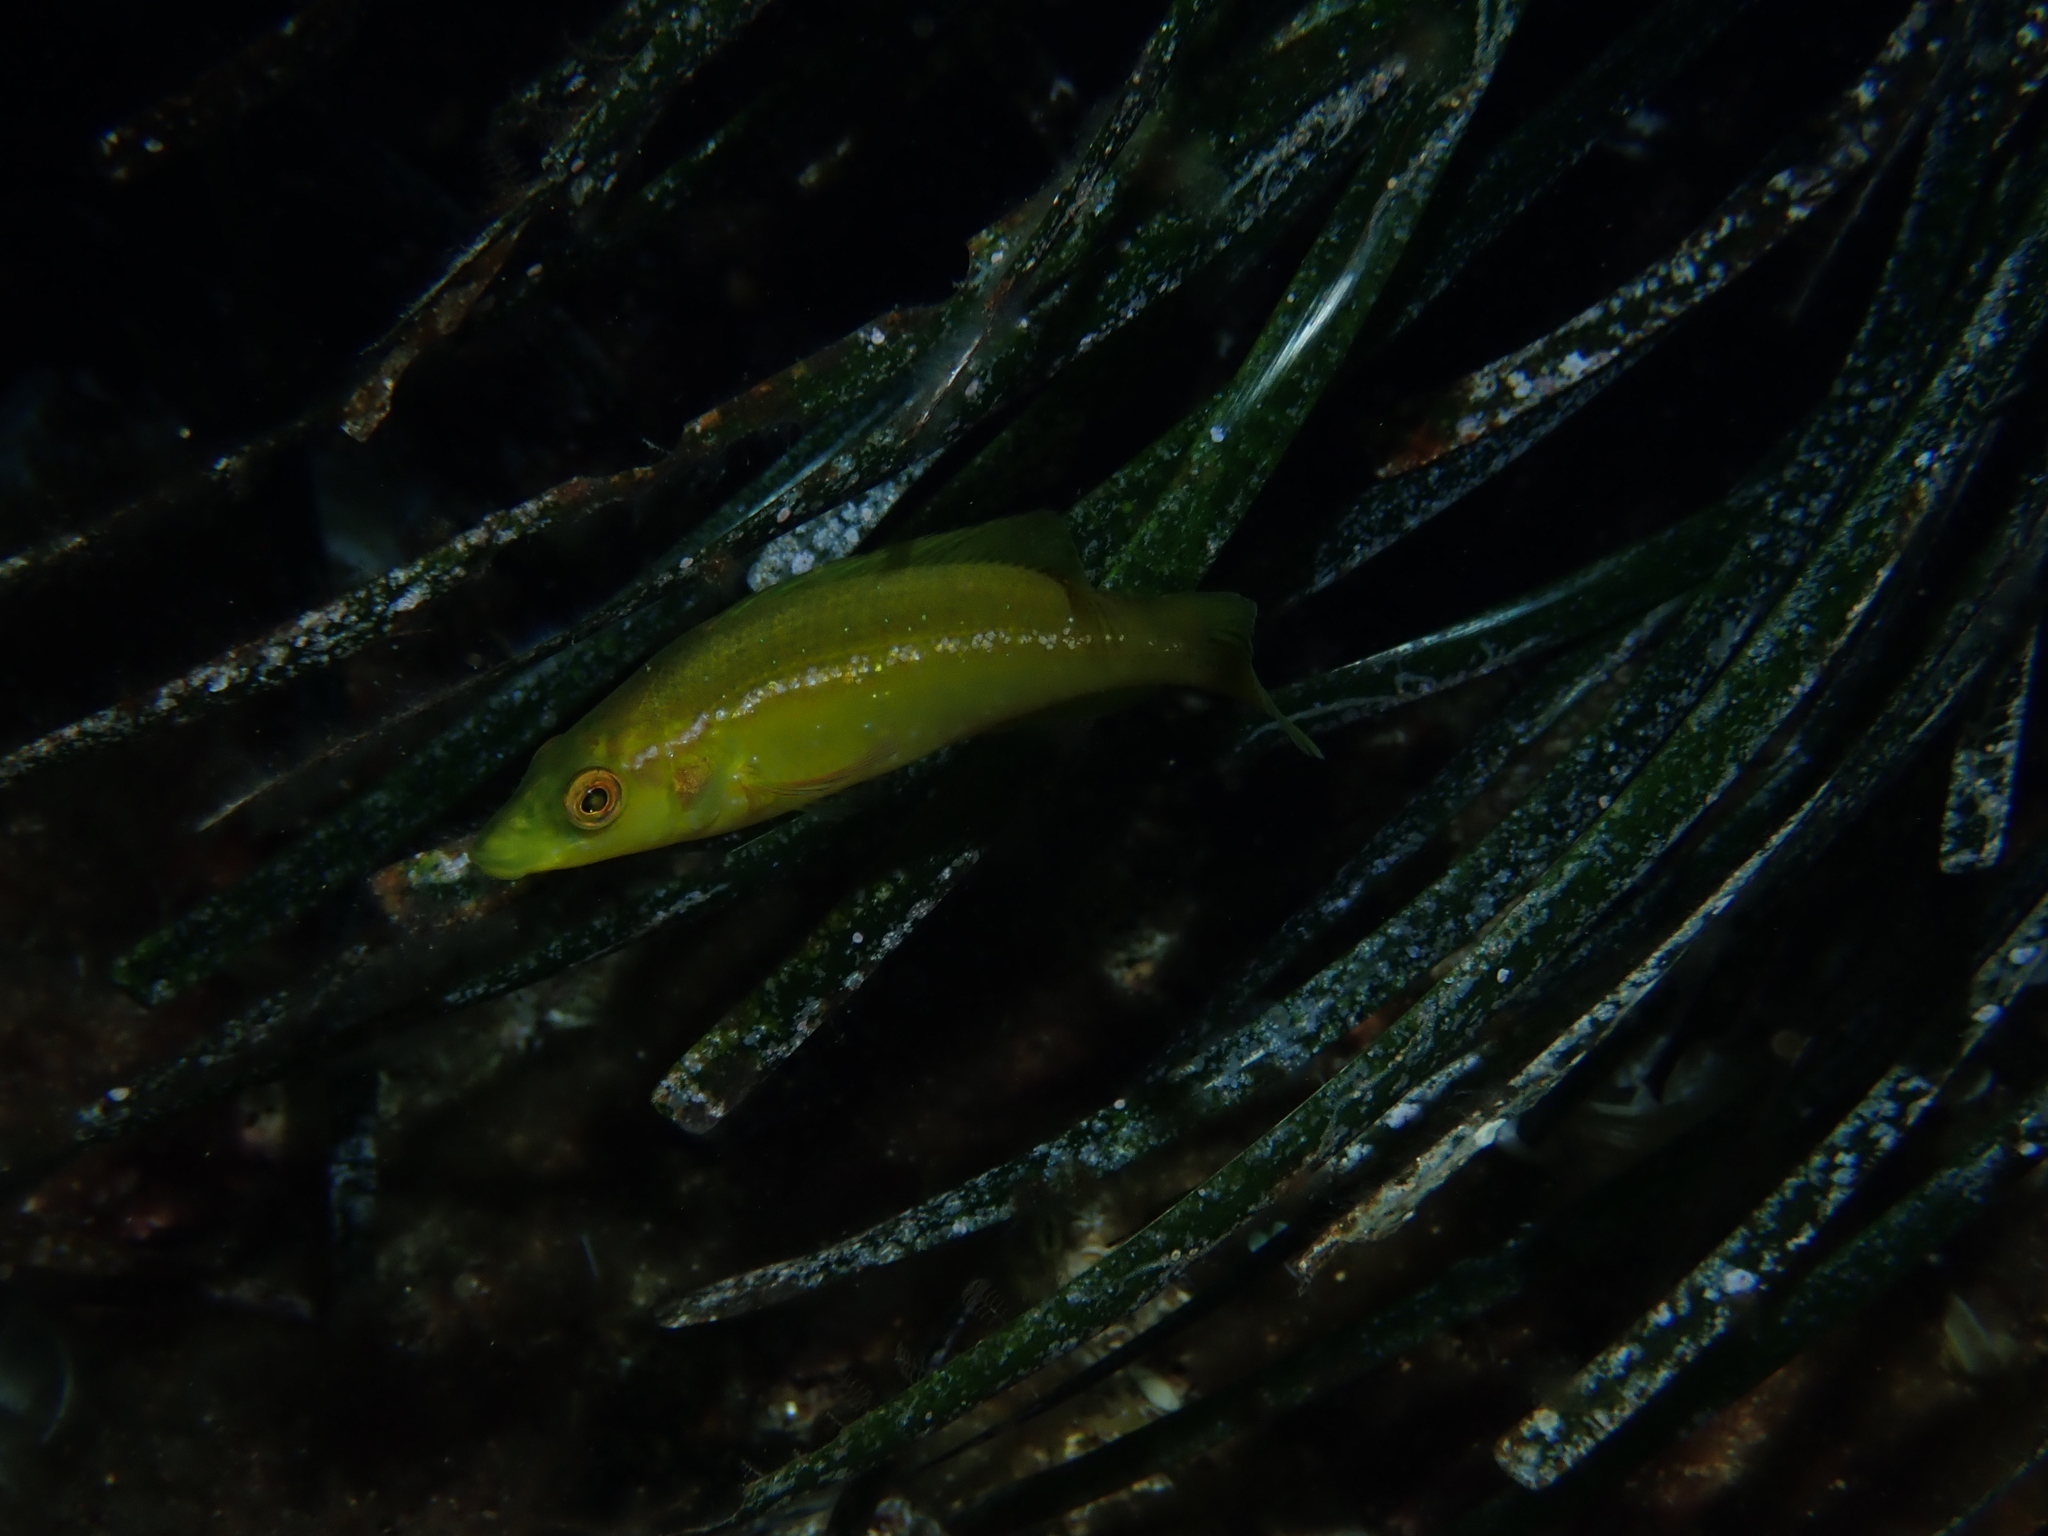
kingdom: Animalia
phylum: Chordata
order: Perciformes
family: Labridae
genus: Labrus
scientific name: Labrus merula
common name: Brown wrasse
